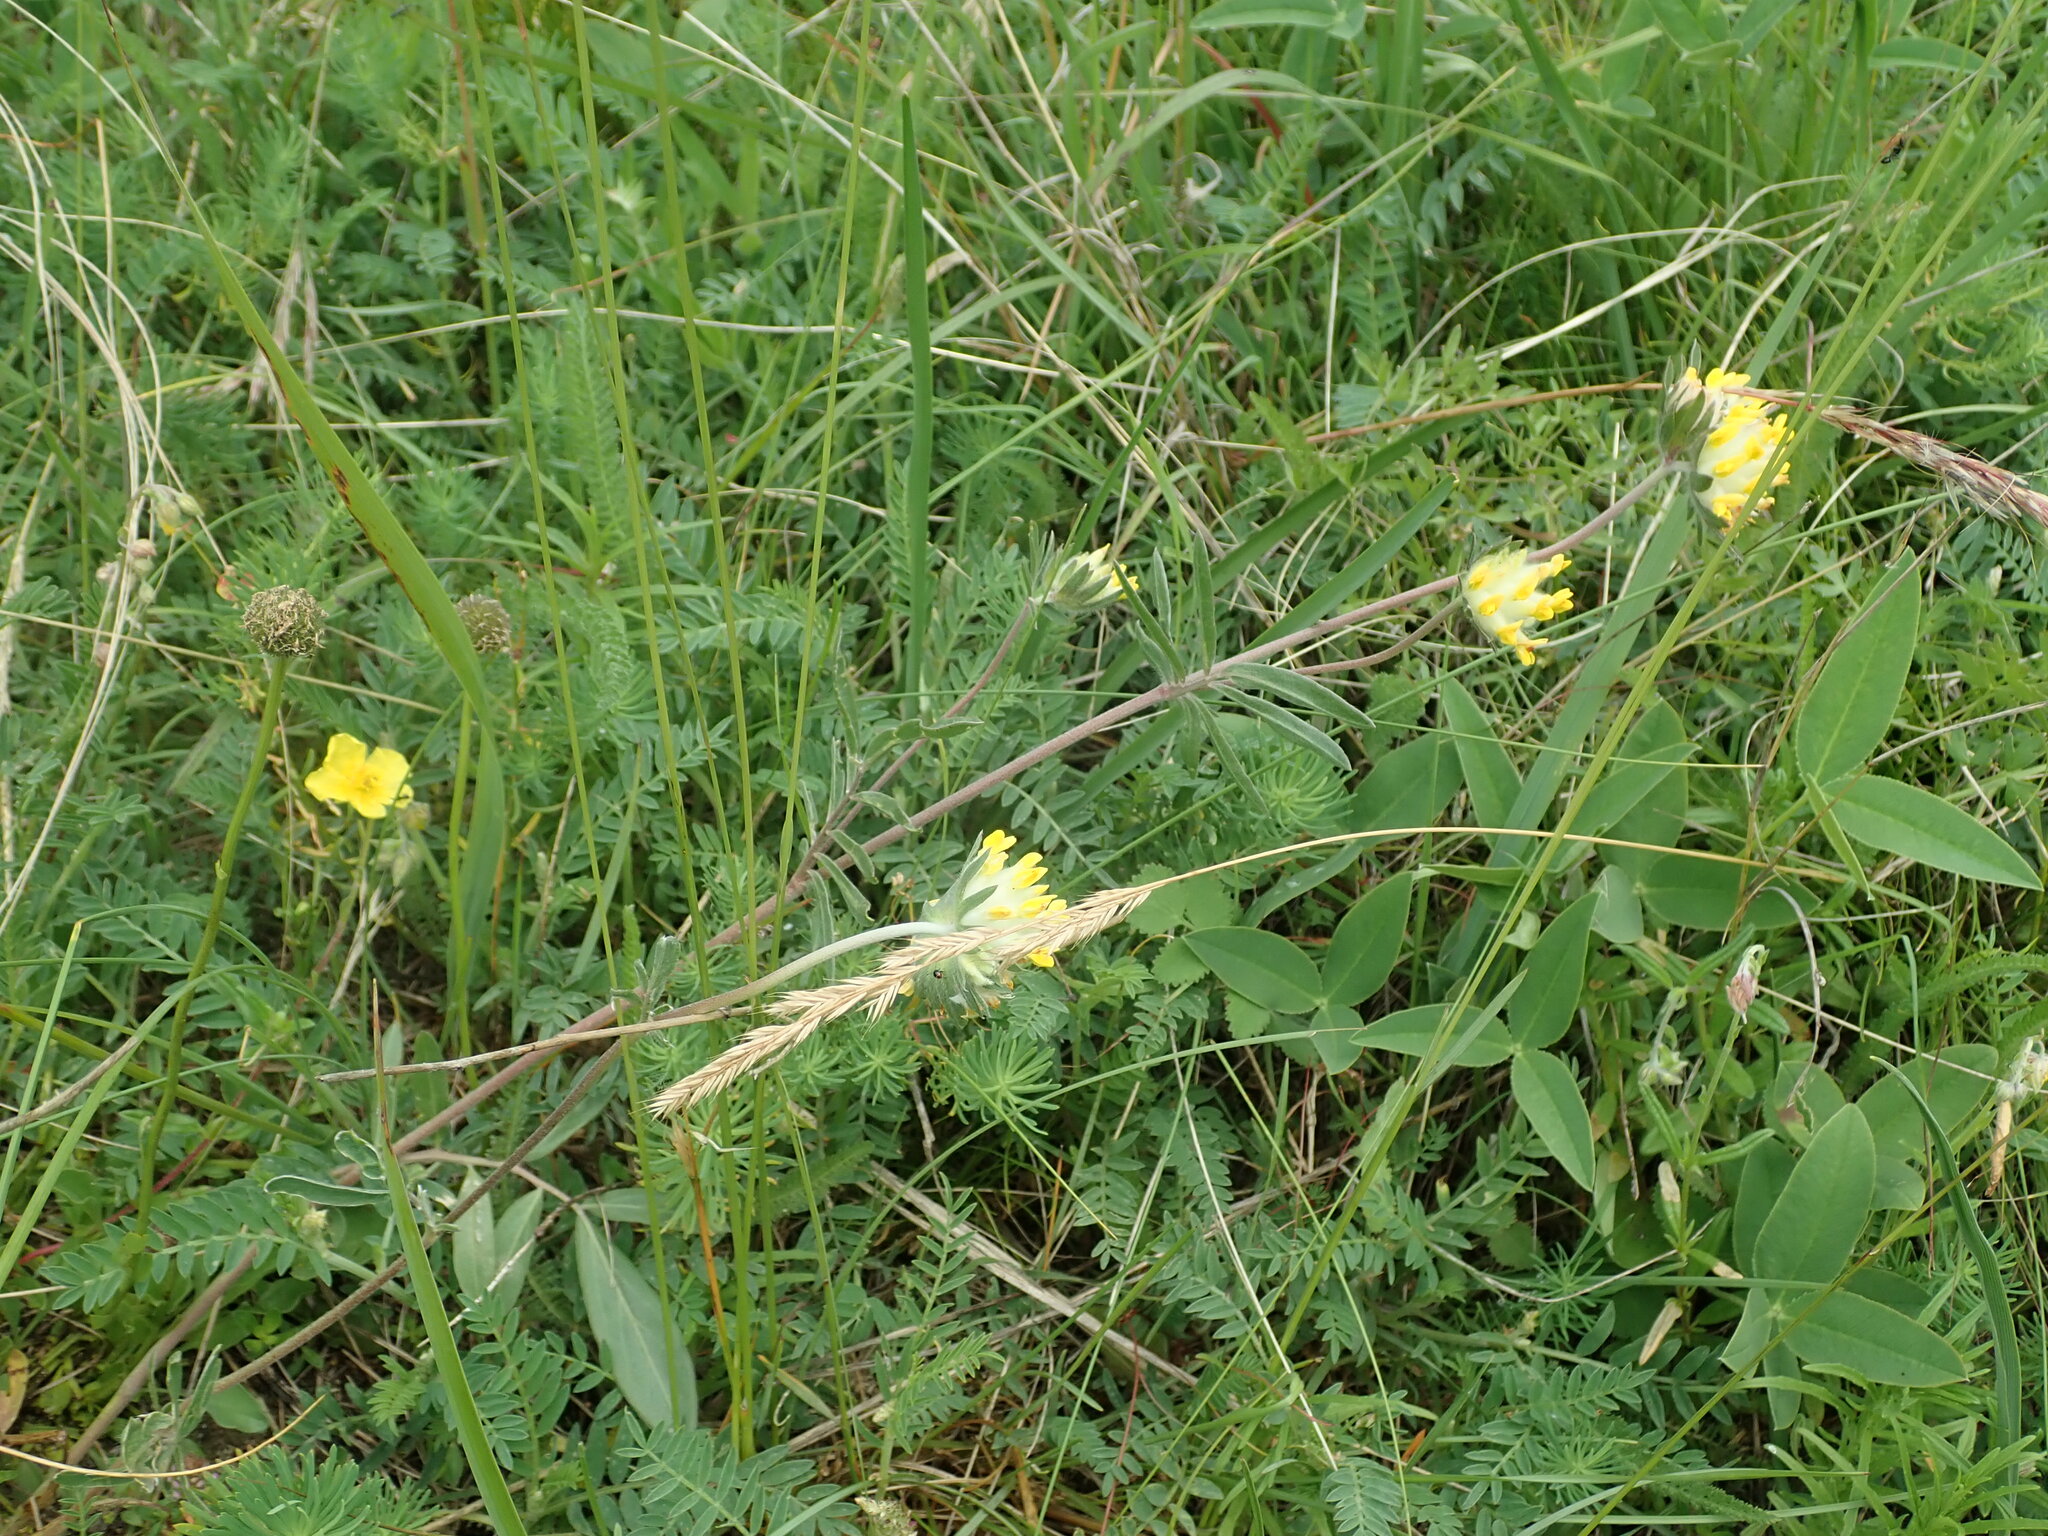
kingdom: Plantae
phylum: Tracheophyta
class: Magnoliopsida
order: Fabales
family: Fabaceae
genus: Anthyllis
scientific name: Anthyllis vulneraria
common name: Kidney vetch
